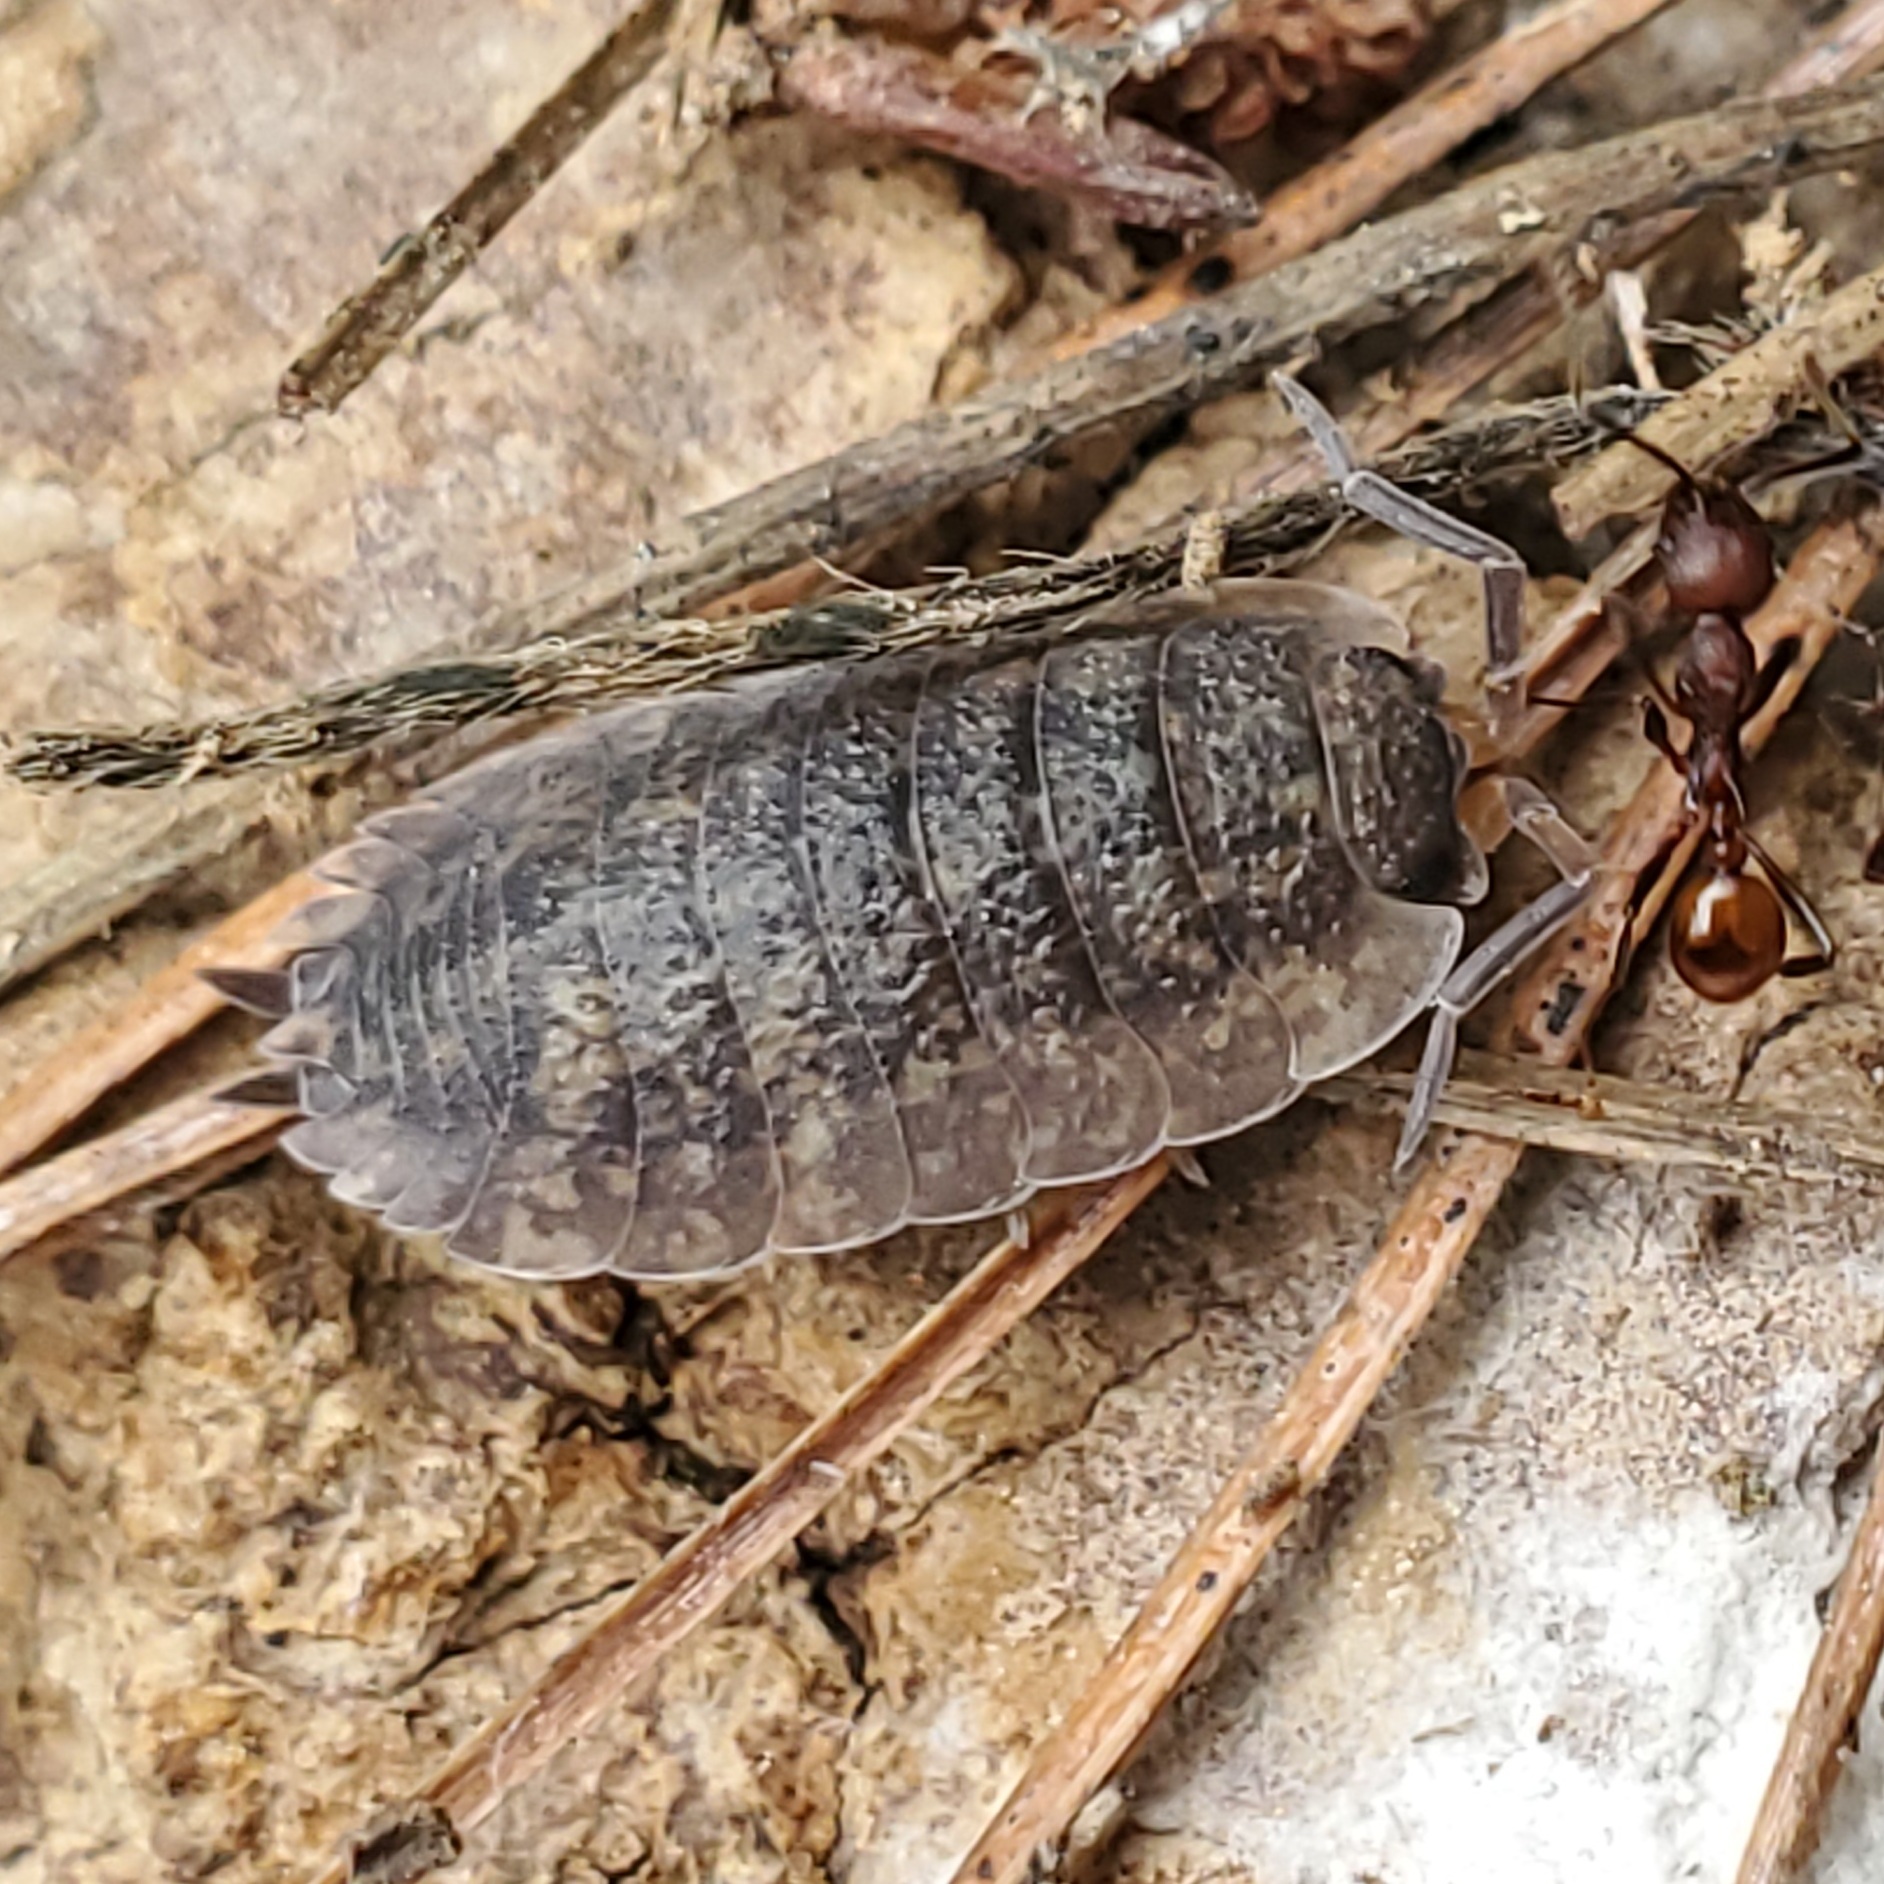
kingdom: Animalia
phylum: Arthropoda
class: Malacostraca
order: Isopoda
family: Porcellionidae
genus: Porcellio
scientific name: Porcellio scaber
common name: Common rough woodlouse
